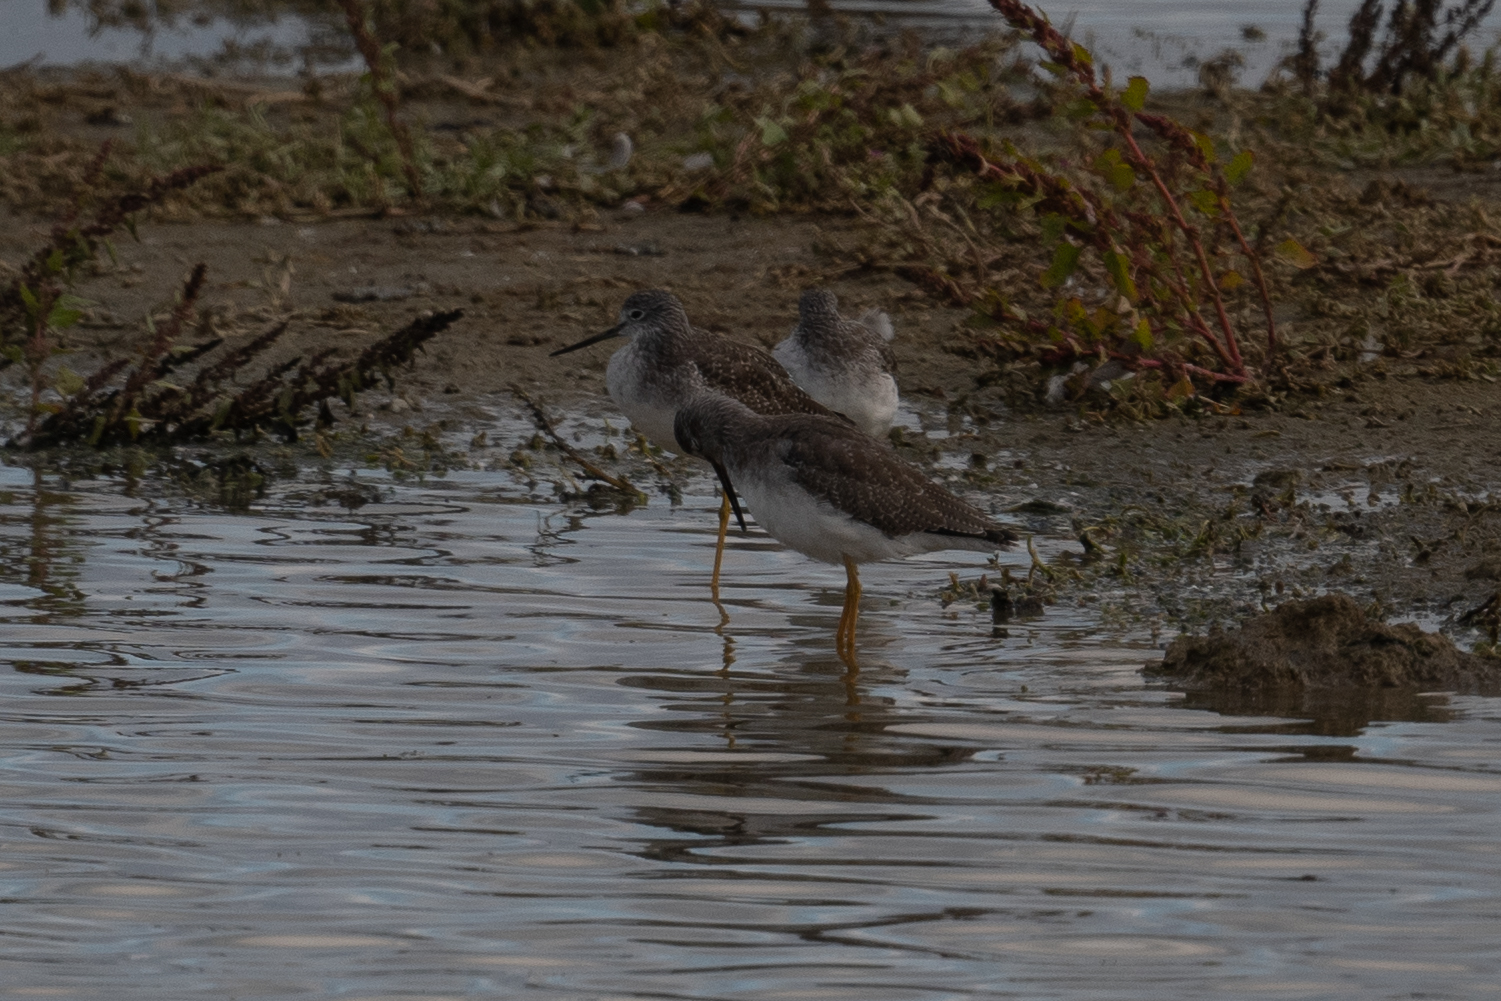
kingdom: Animalia
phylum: Chordata
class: Aves
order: Charadriiformes
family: Scolopacidae
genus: Tringa
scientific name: Tringa melanoleuca
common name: Greater yellowlegs
